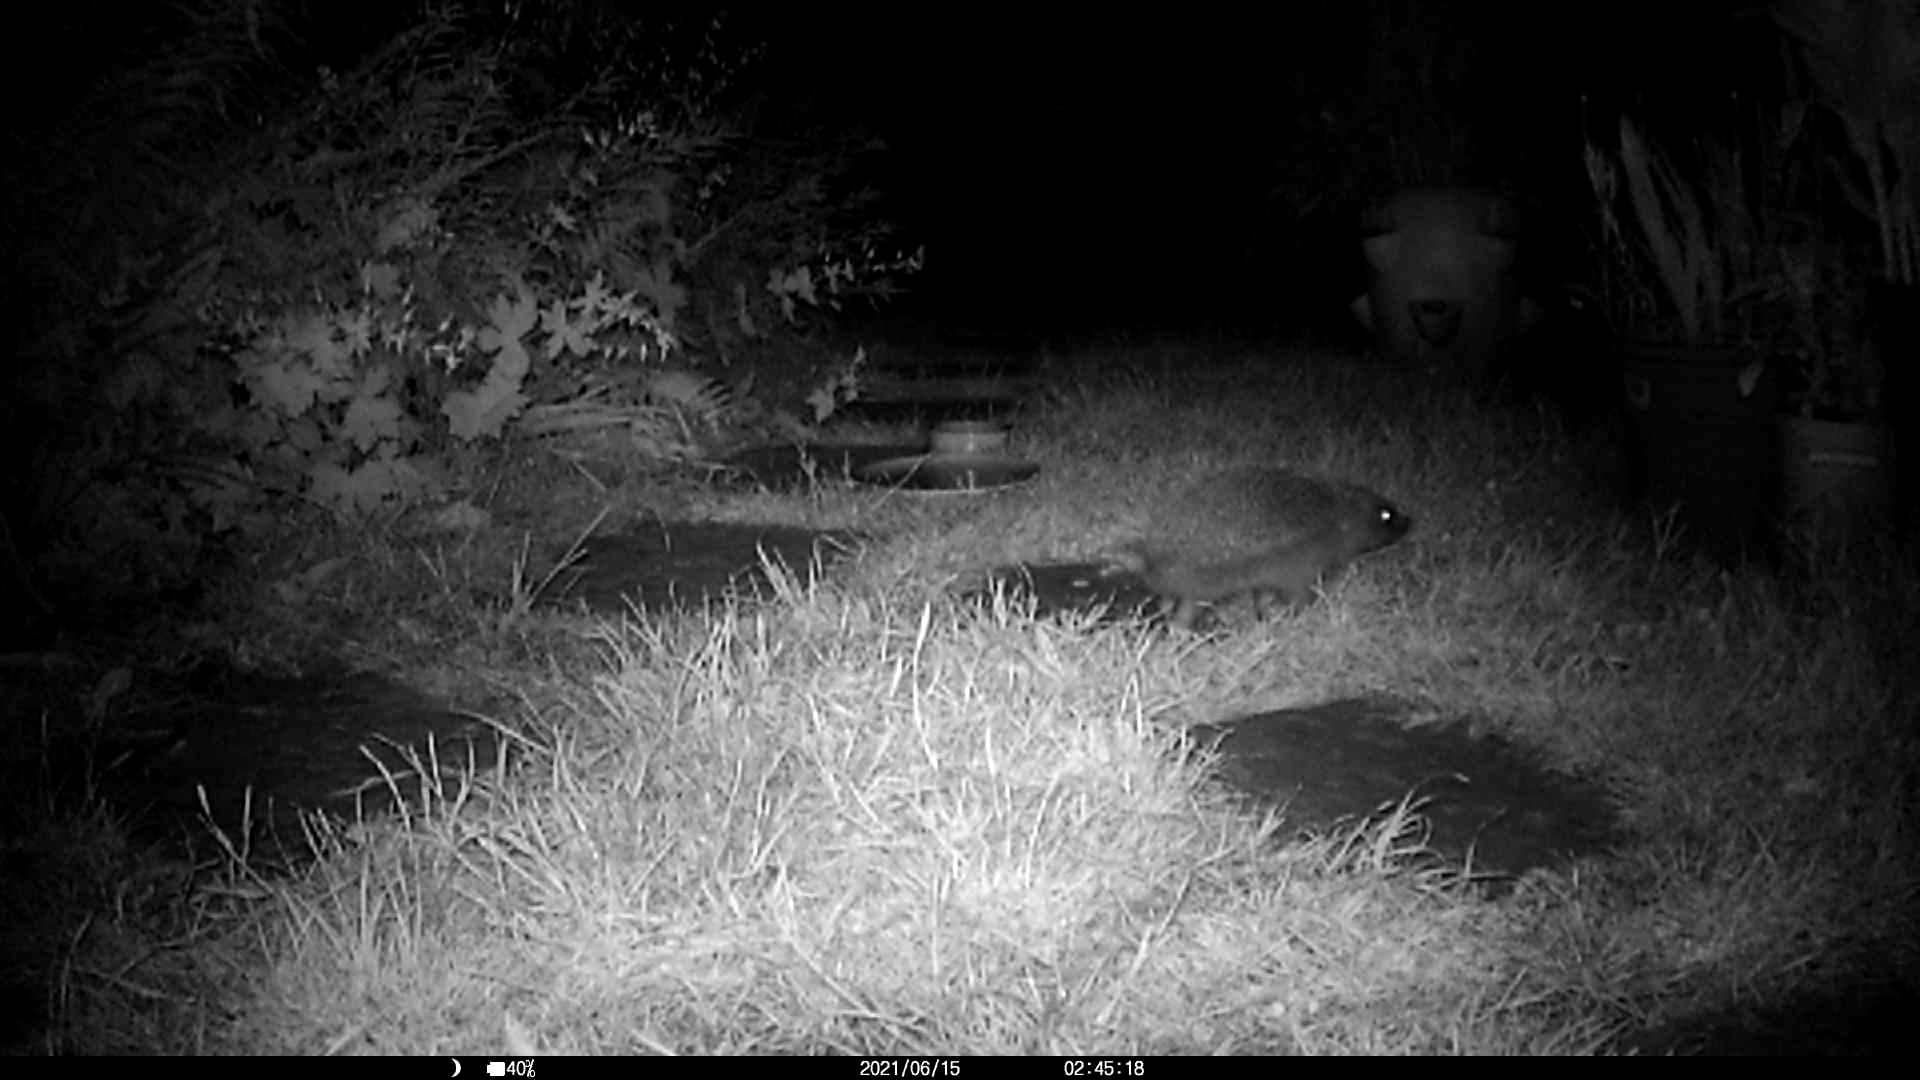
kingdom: Animalia
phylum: Chordata
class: Mammalia
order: Erinaceomorpha
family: Erinaceidae
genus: Erinaceus
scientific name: Erinaceus europaeus
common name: West european hedgehog
